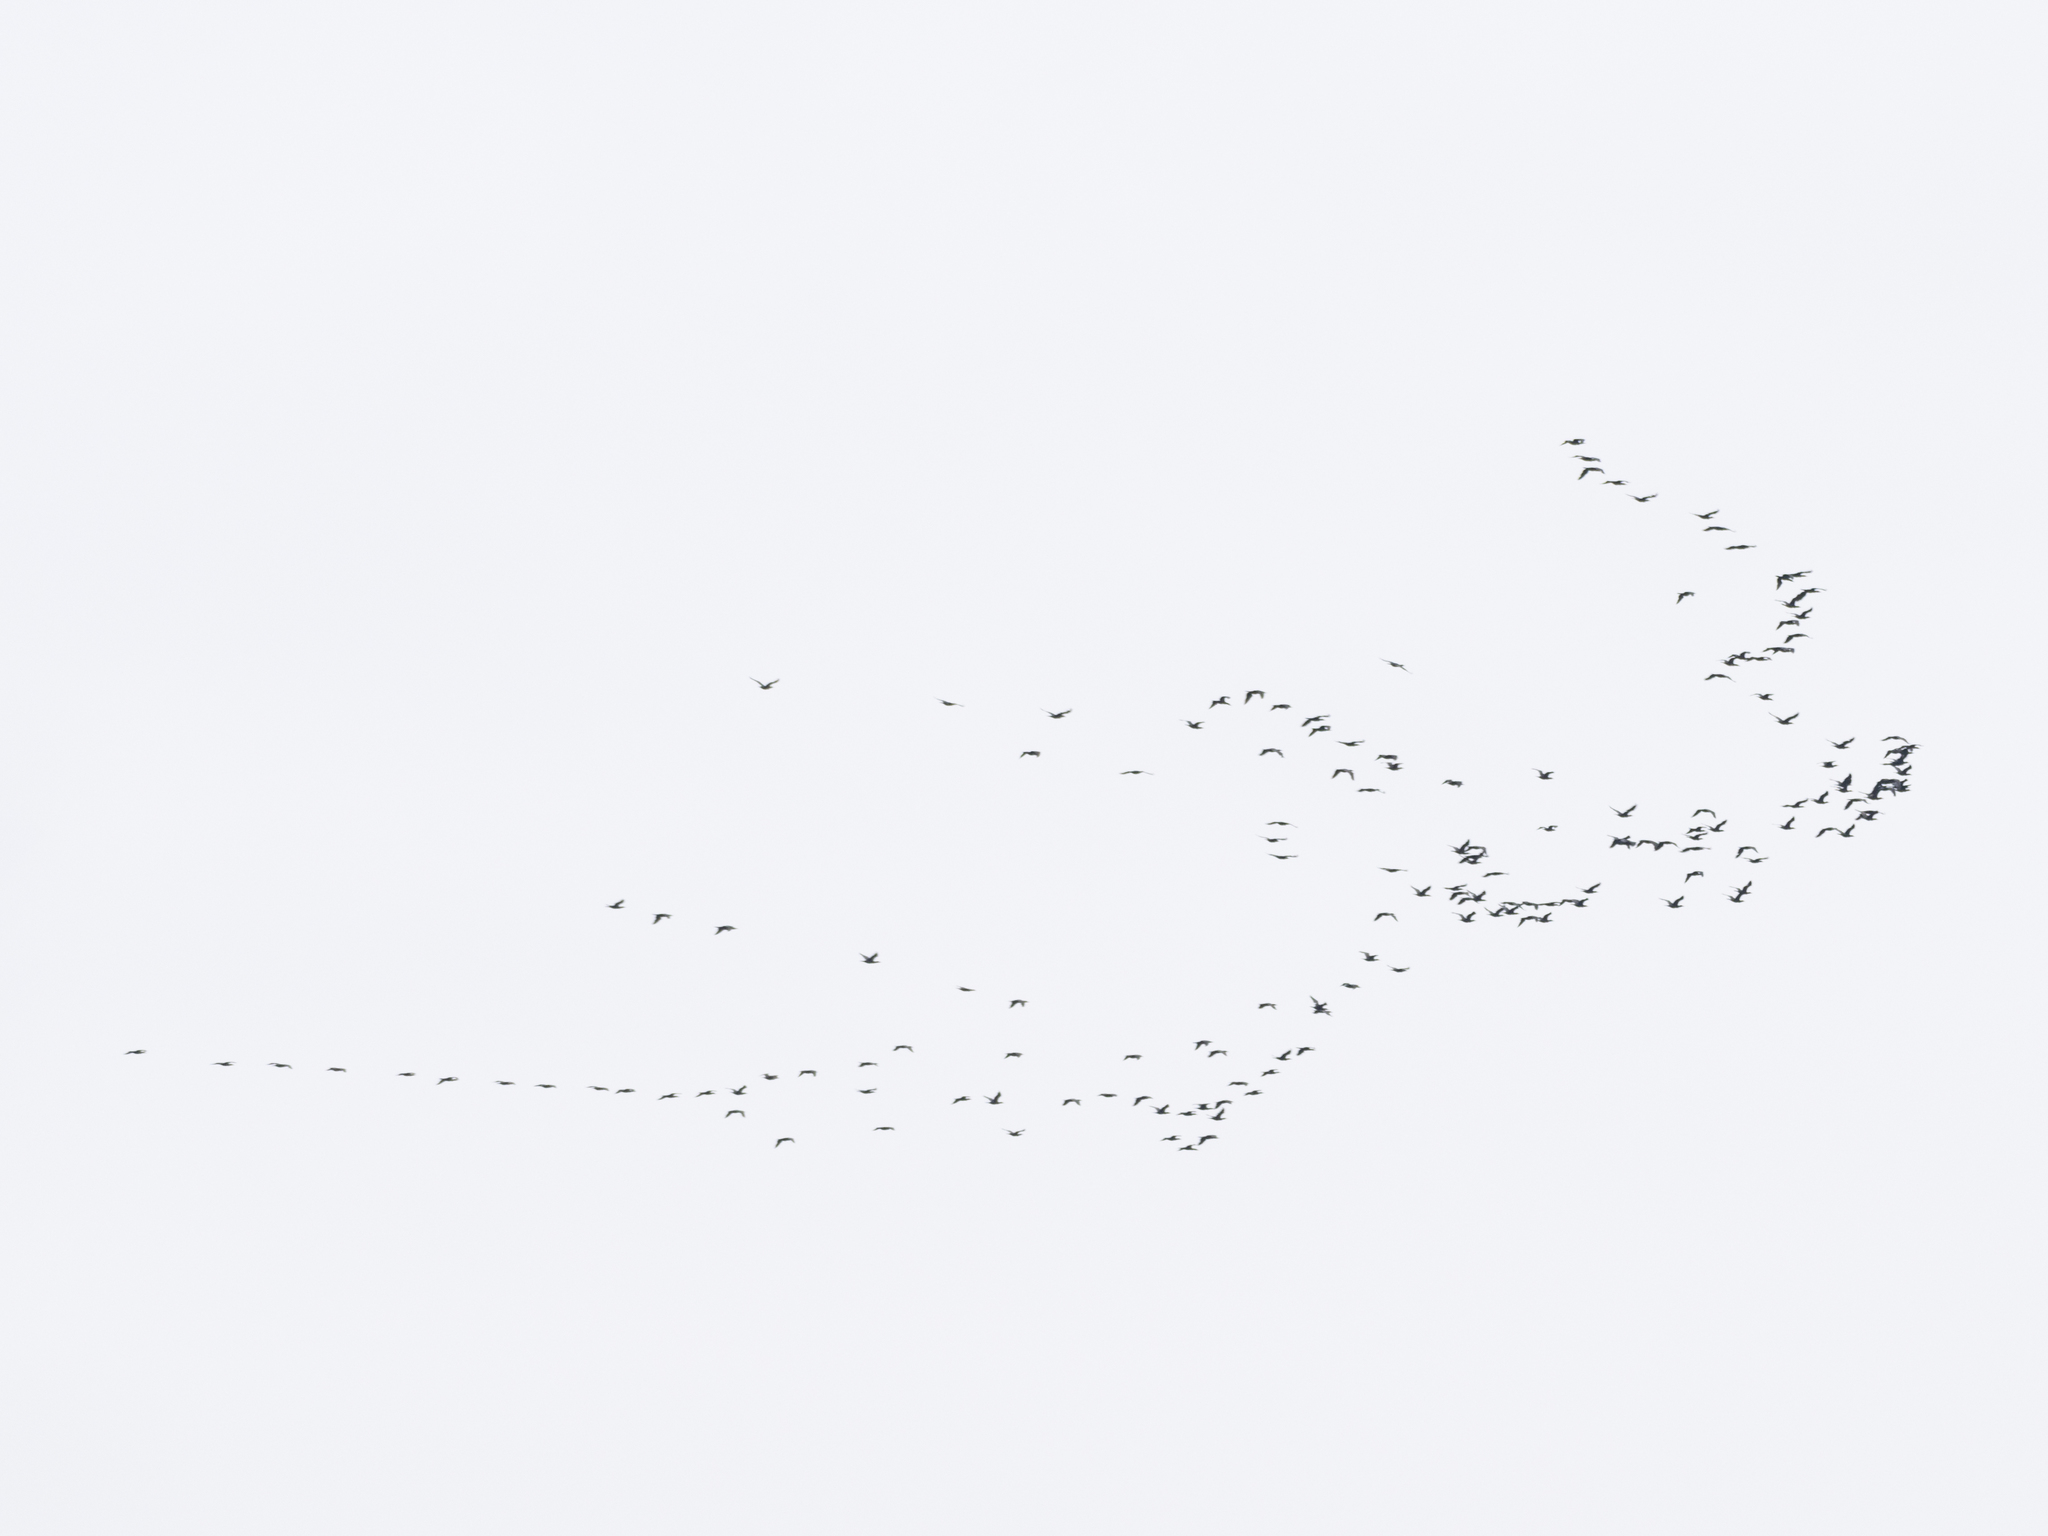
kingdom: Animalia
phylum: Chordata
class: Aves
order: Suliformes
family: Phalacrocoracidae
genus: Phalacrocorax
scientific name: Phalacrocorax carbo
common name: Great cormorant
